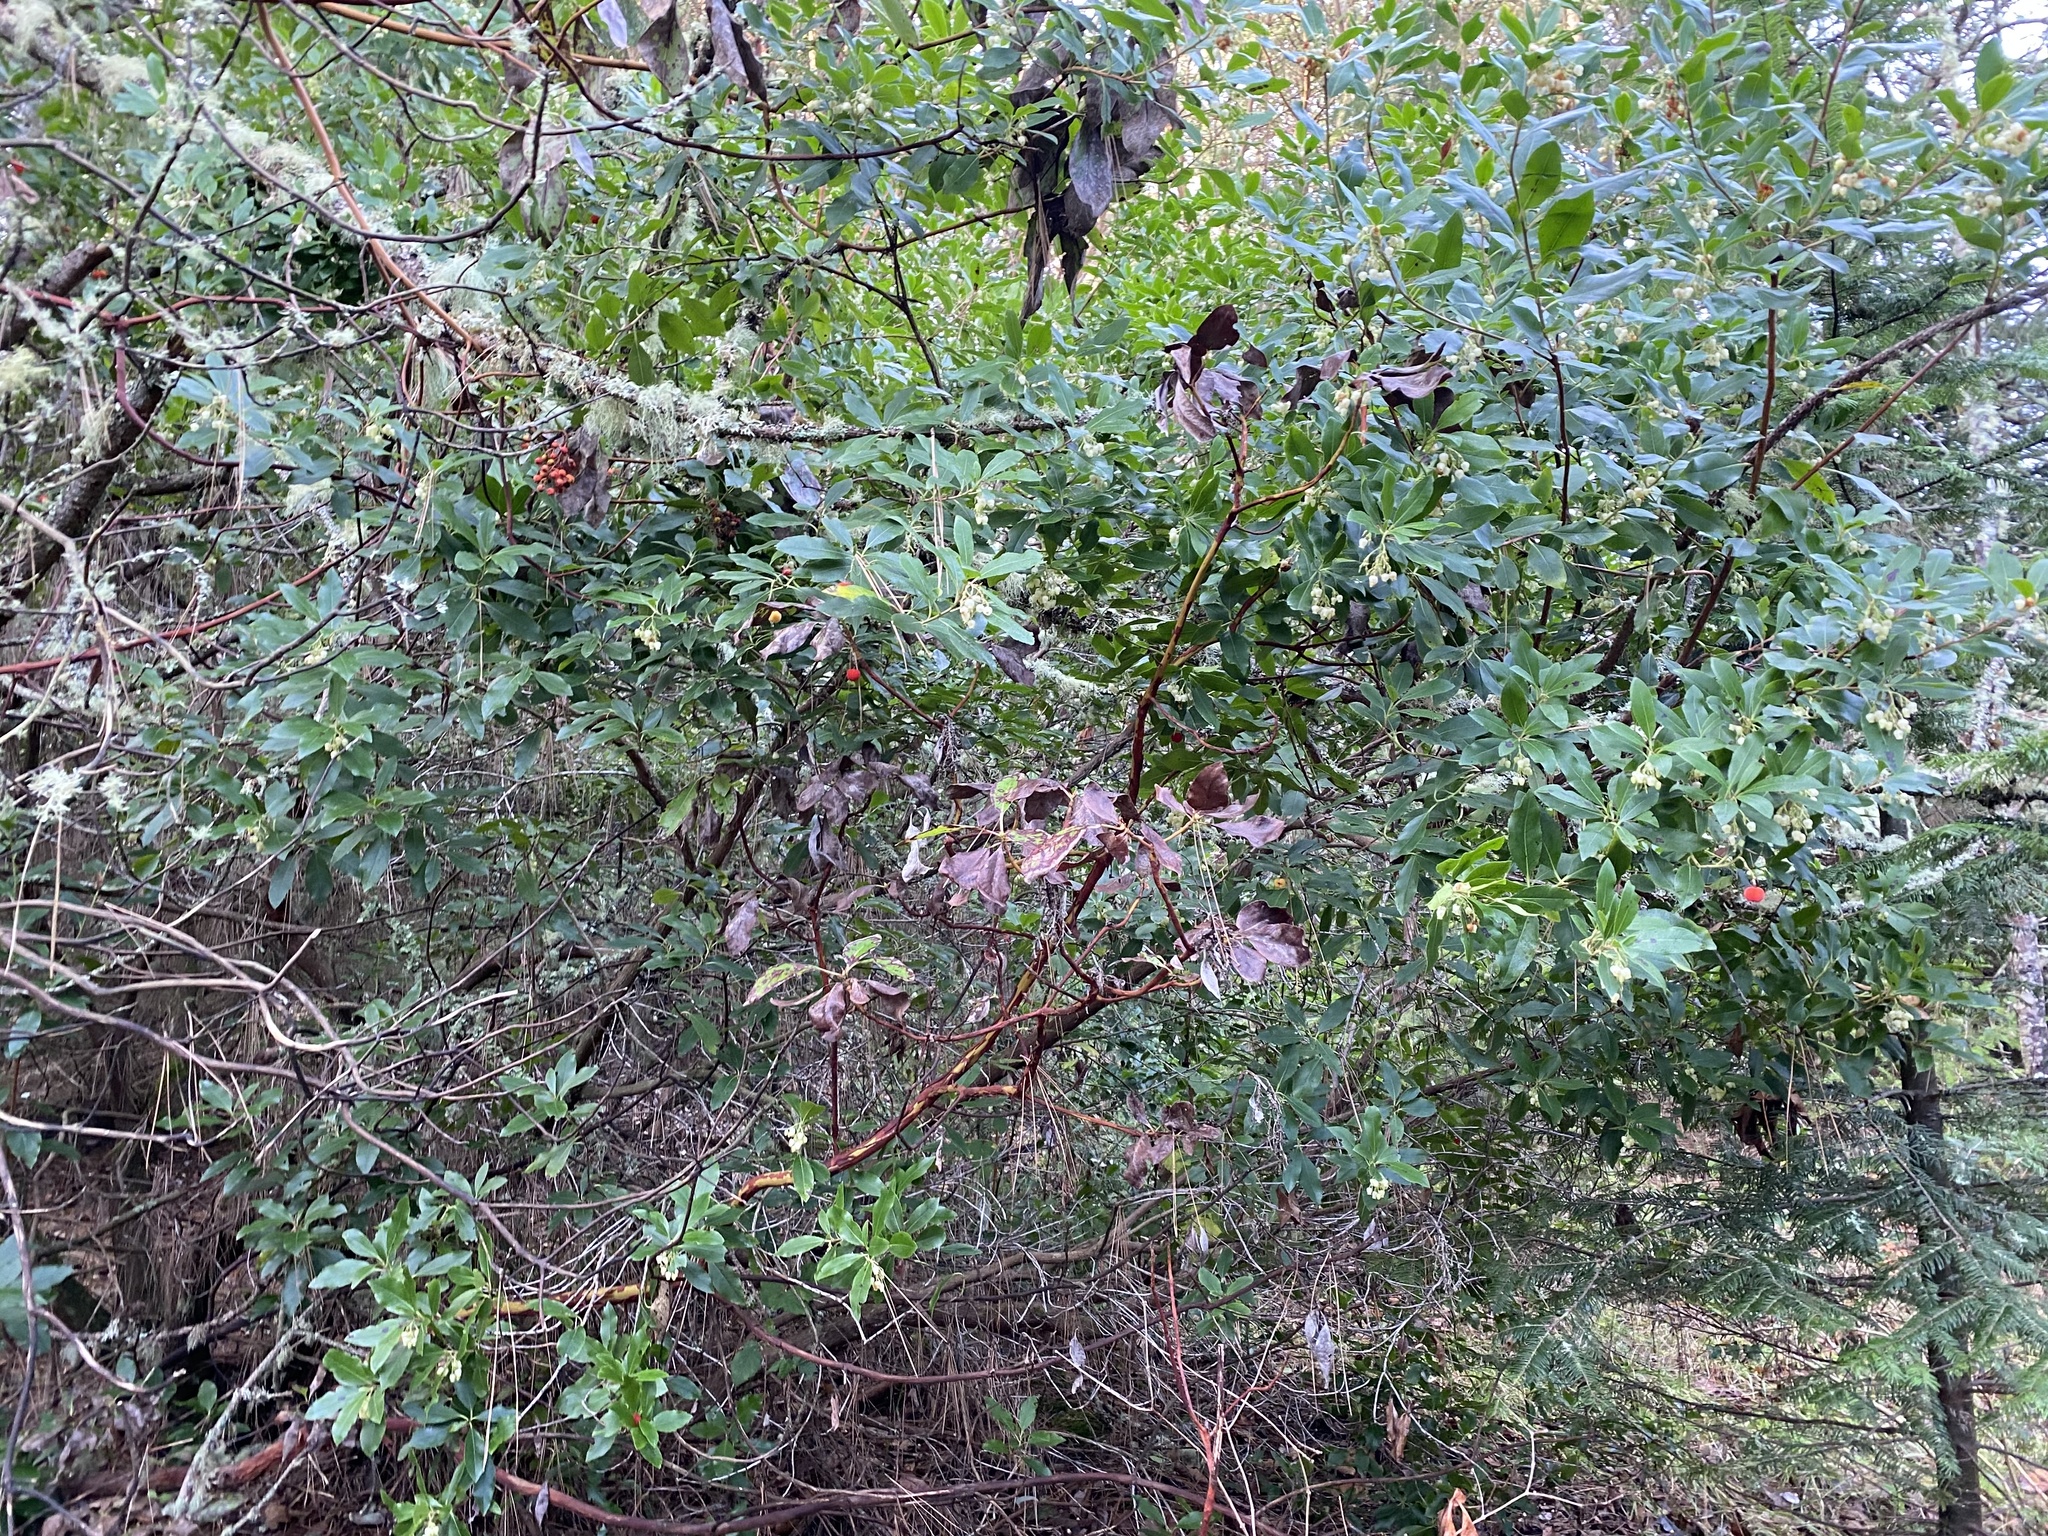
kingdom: Plantae
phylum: Tracheophyta
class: Magnoliopsida
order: Ericales
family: Ericaceae
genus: Arbutus
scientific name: Arbutus unedo
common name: Strawberry-tree
